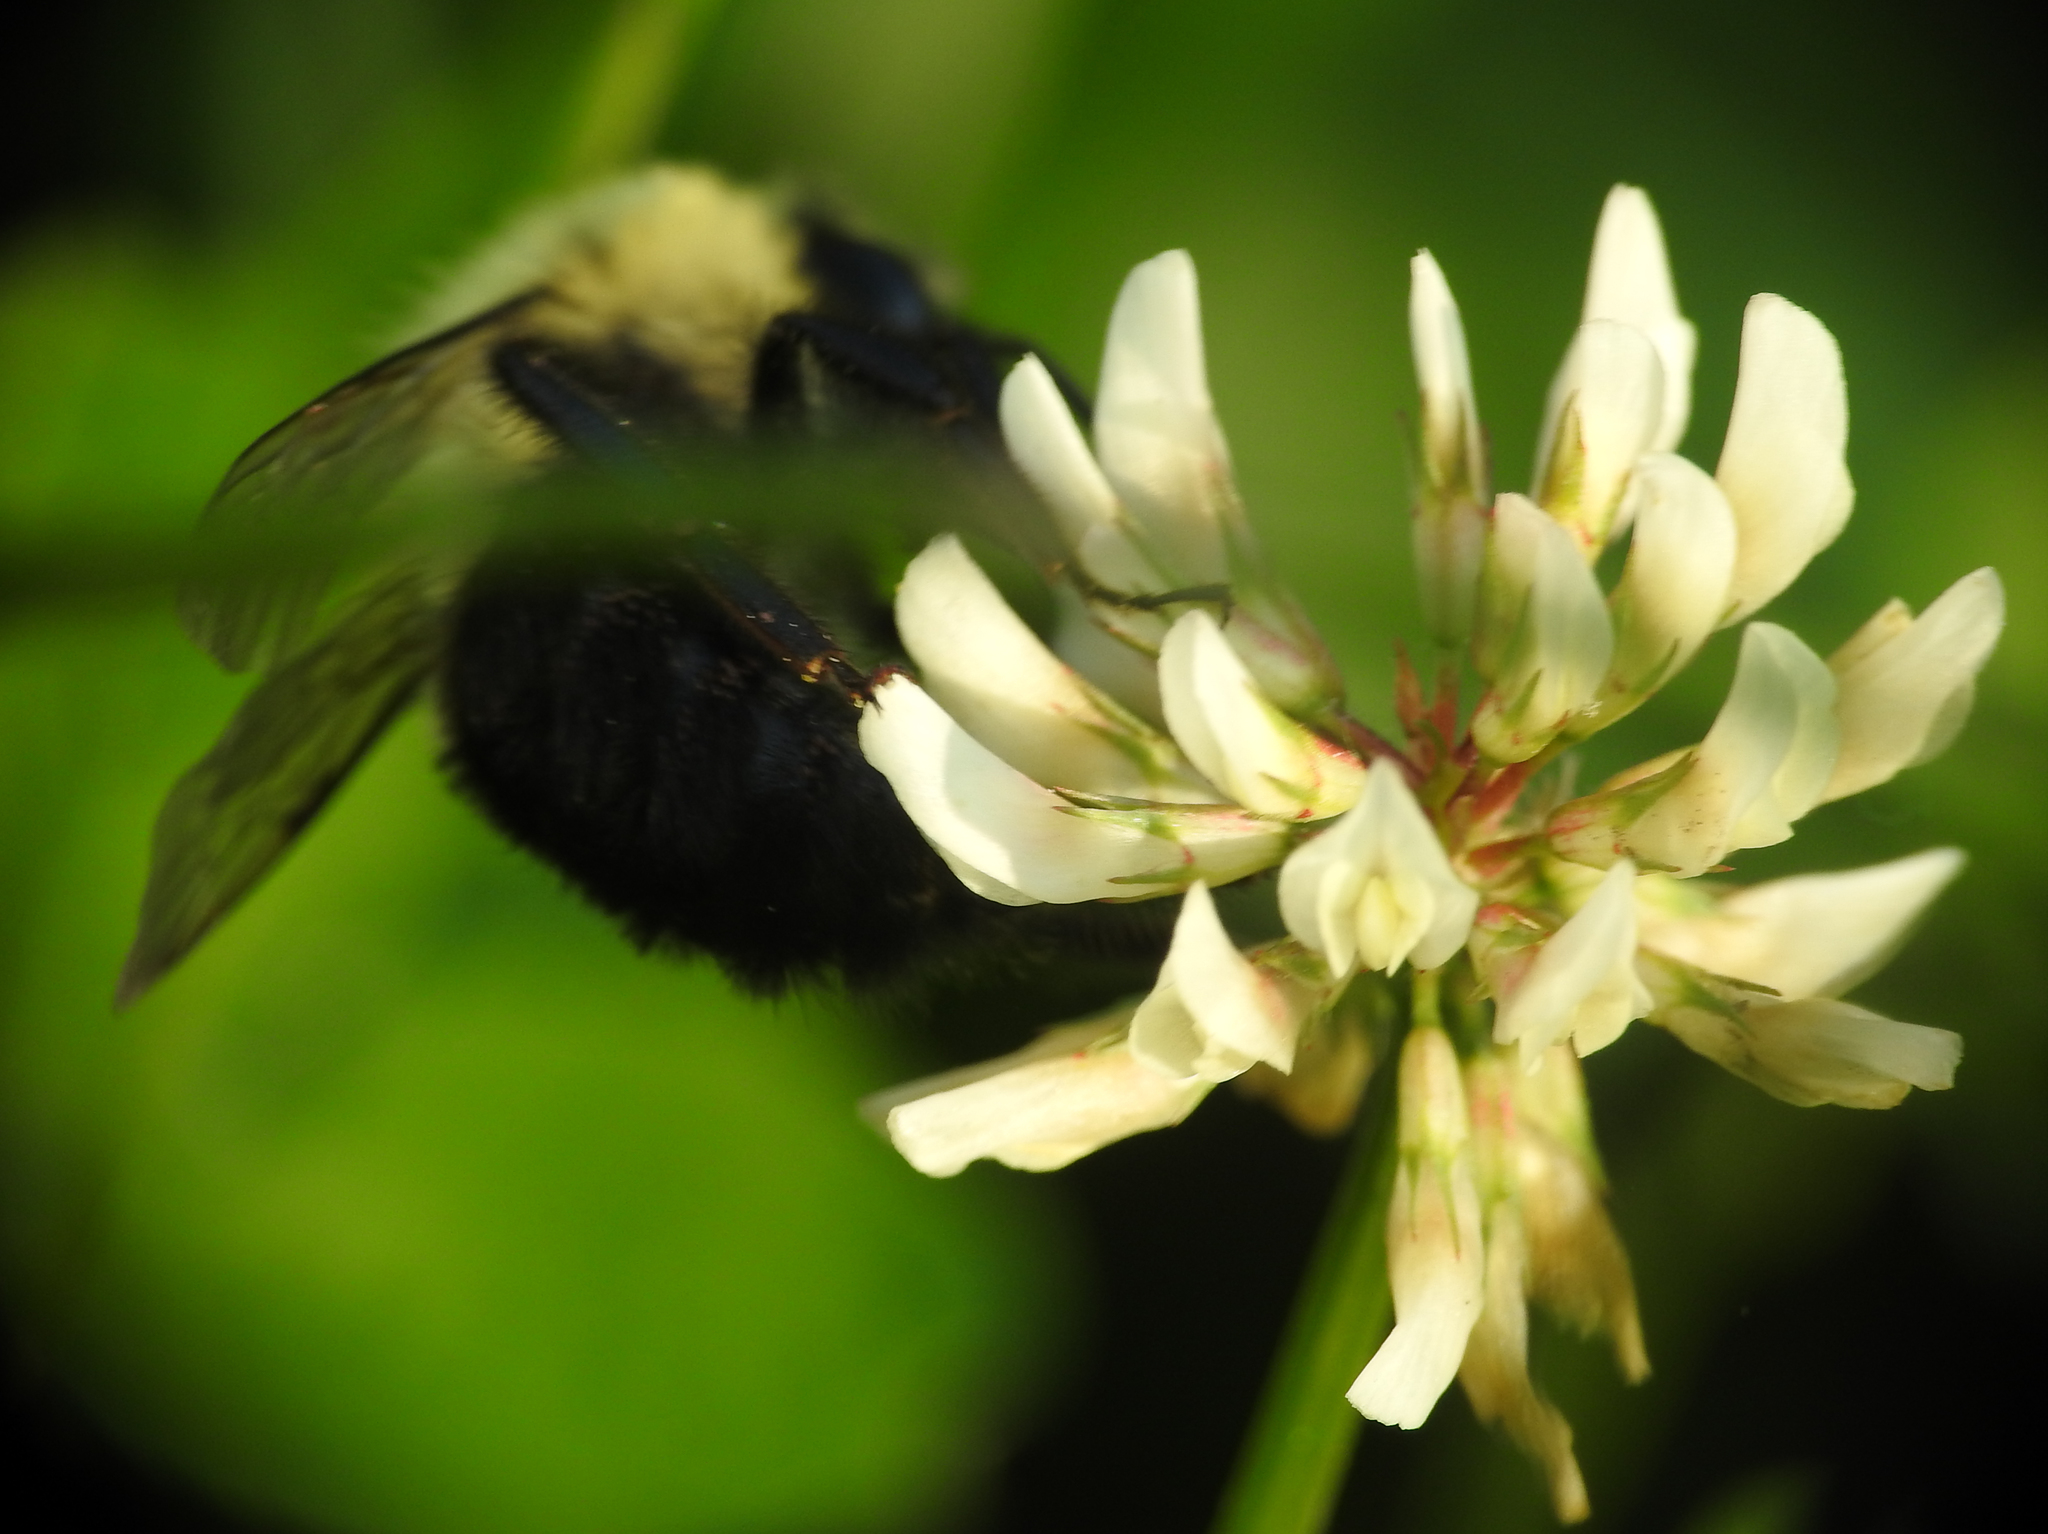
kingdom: Animalia
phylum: Arthropoda
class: Insecta
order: Hymenoptera
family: Apidae
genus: Bombus
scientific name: Bombus impatiens
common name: Common eastern bumble bee
